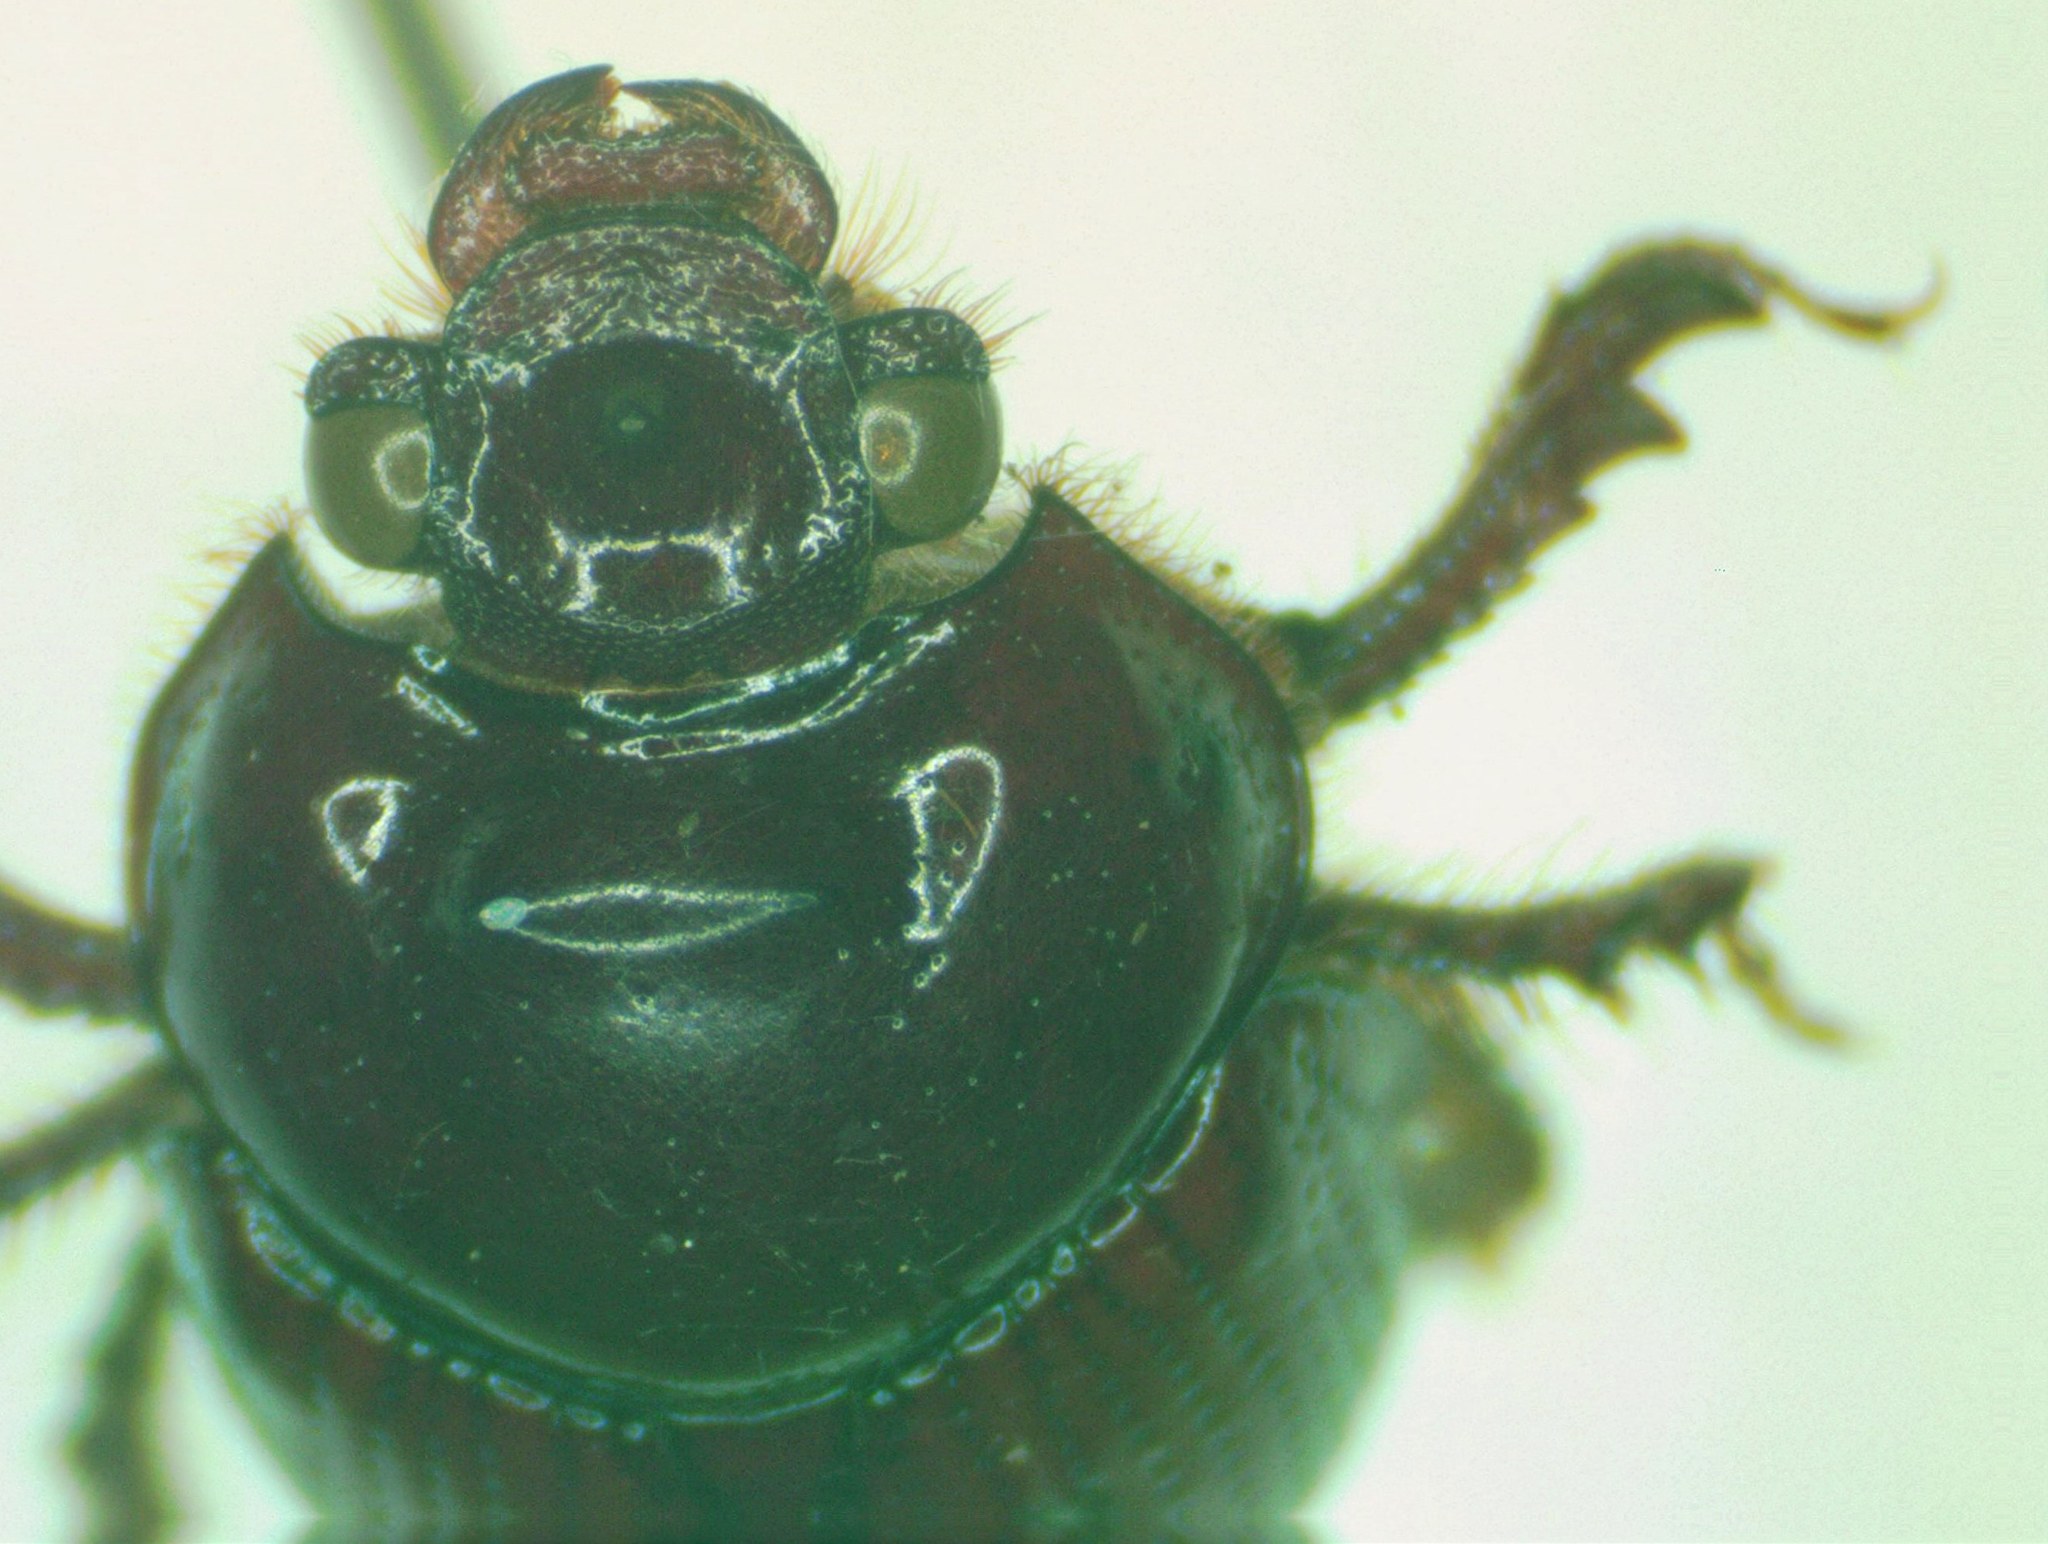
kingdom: Animalia
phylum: Arthropoda
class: Insecta
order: Coleoptera
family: Geotrupidae
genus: Bolbelasmus
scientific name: Bolbelasmus arcuatus
